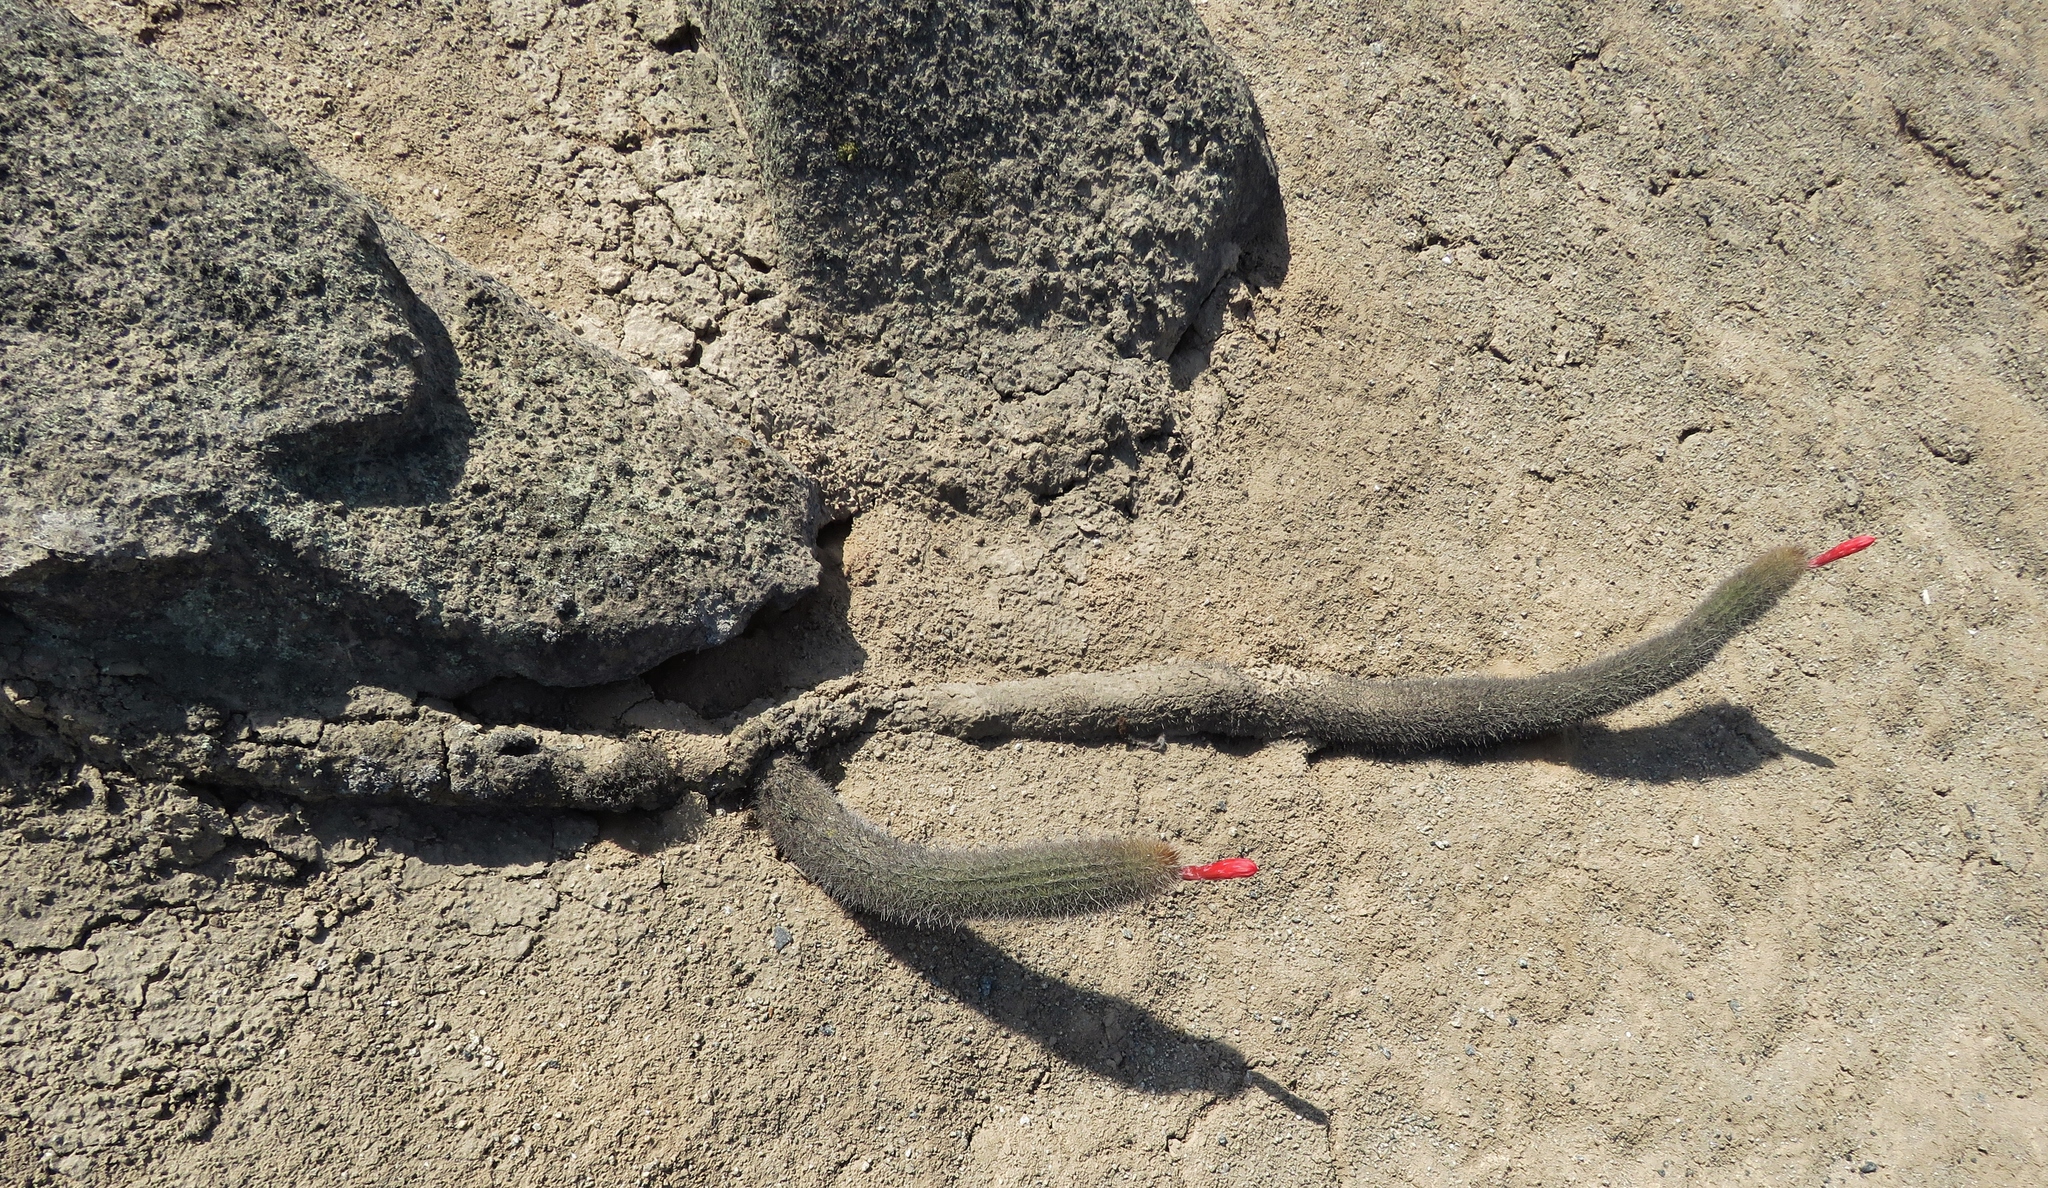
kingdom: Plantae
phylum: Tracheophyta
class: Magnoliopsida
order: Caryophyllales
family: Cactaceae
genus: Borzicactus
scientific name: Borzicactus acanthurus
